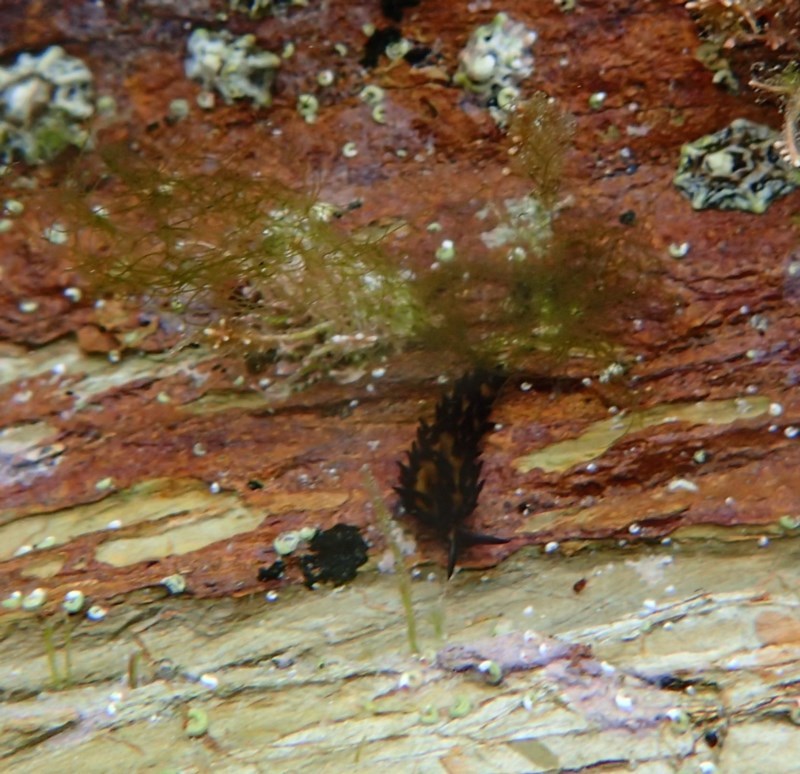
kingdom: Animalia
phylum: Mollusca
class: Gastropoda
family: Limapontiidae
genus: Placida
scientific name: Placida barackobamai
